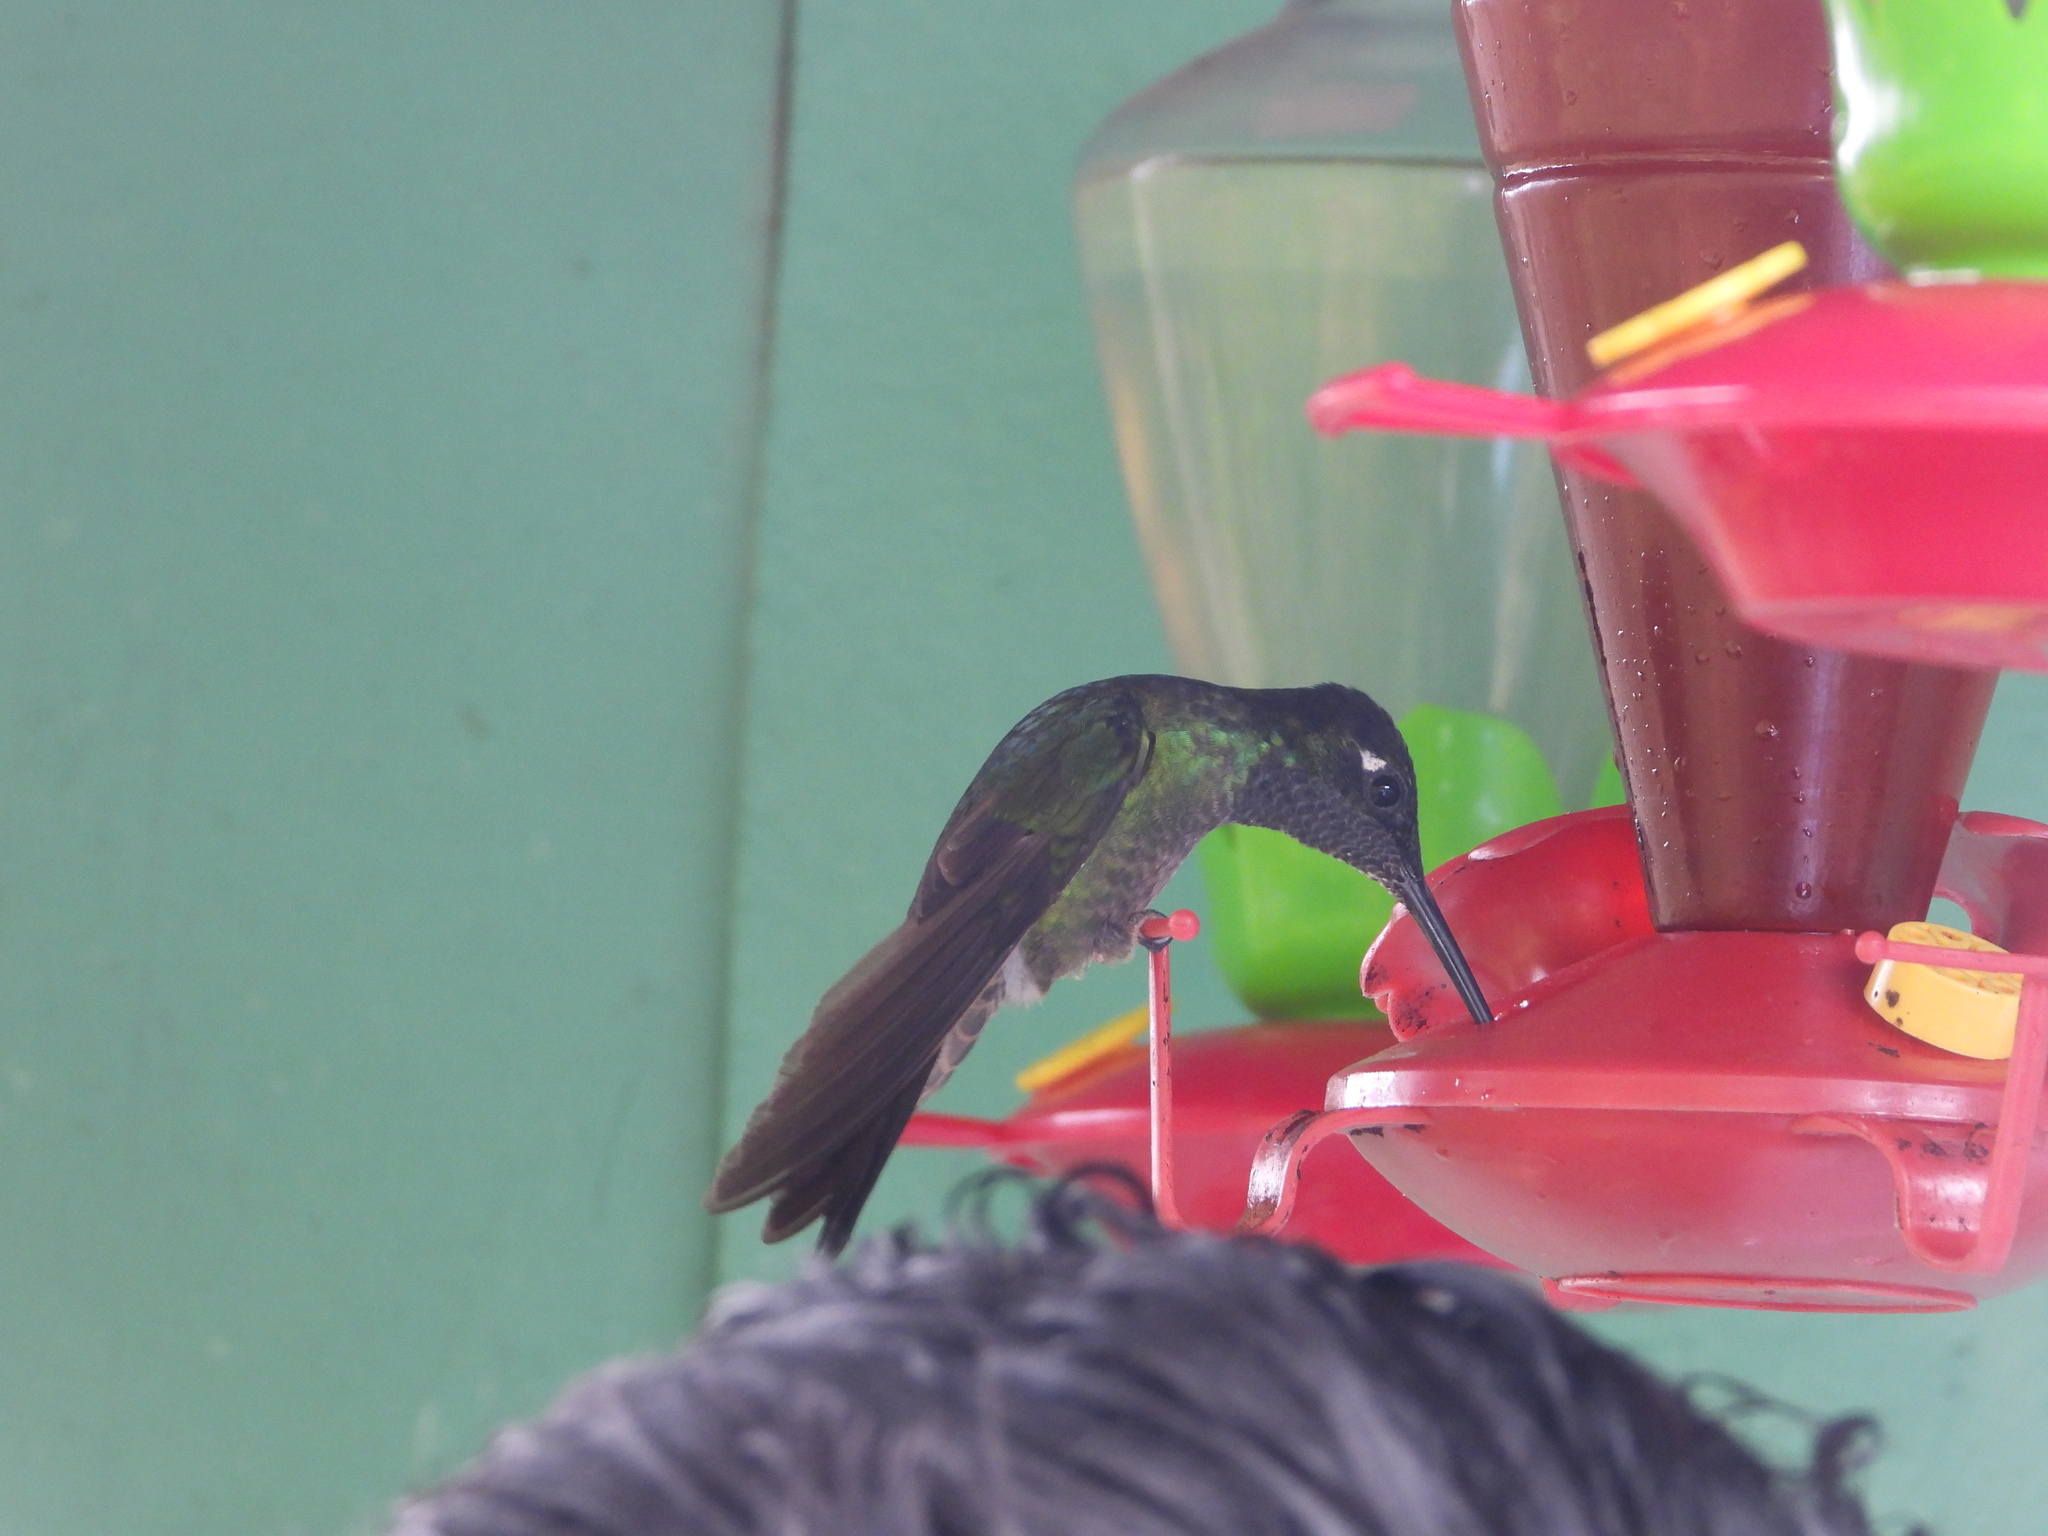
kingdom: Animalia
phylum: Chordata
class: Aves
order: Apodiformes
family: Trochilidae
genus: Eugenes
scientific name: Eugenes spectabilis
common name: Talamanca hummingbird
